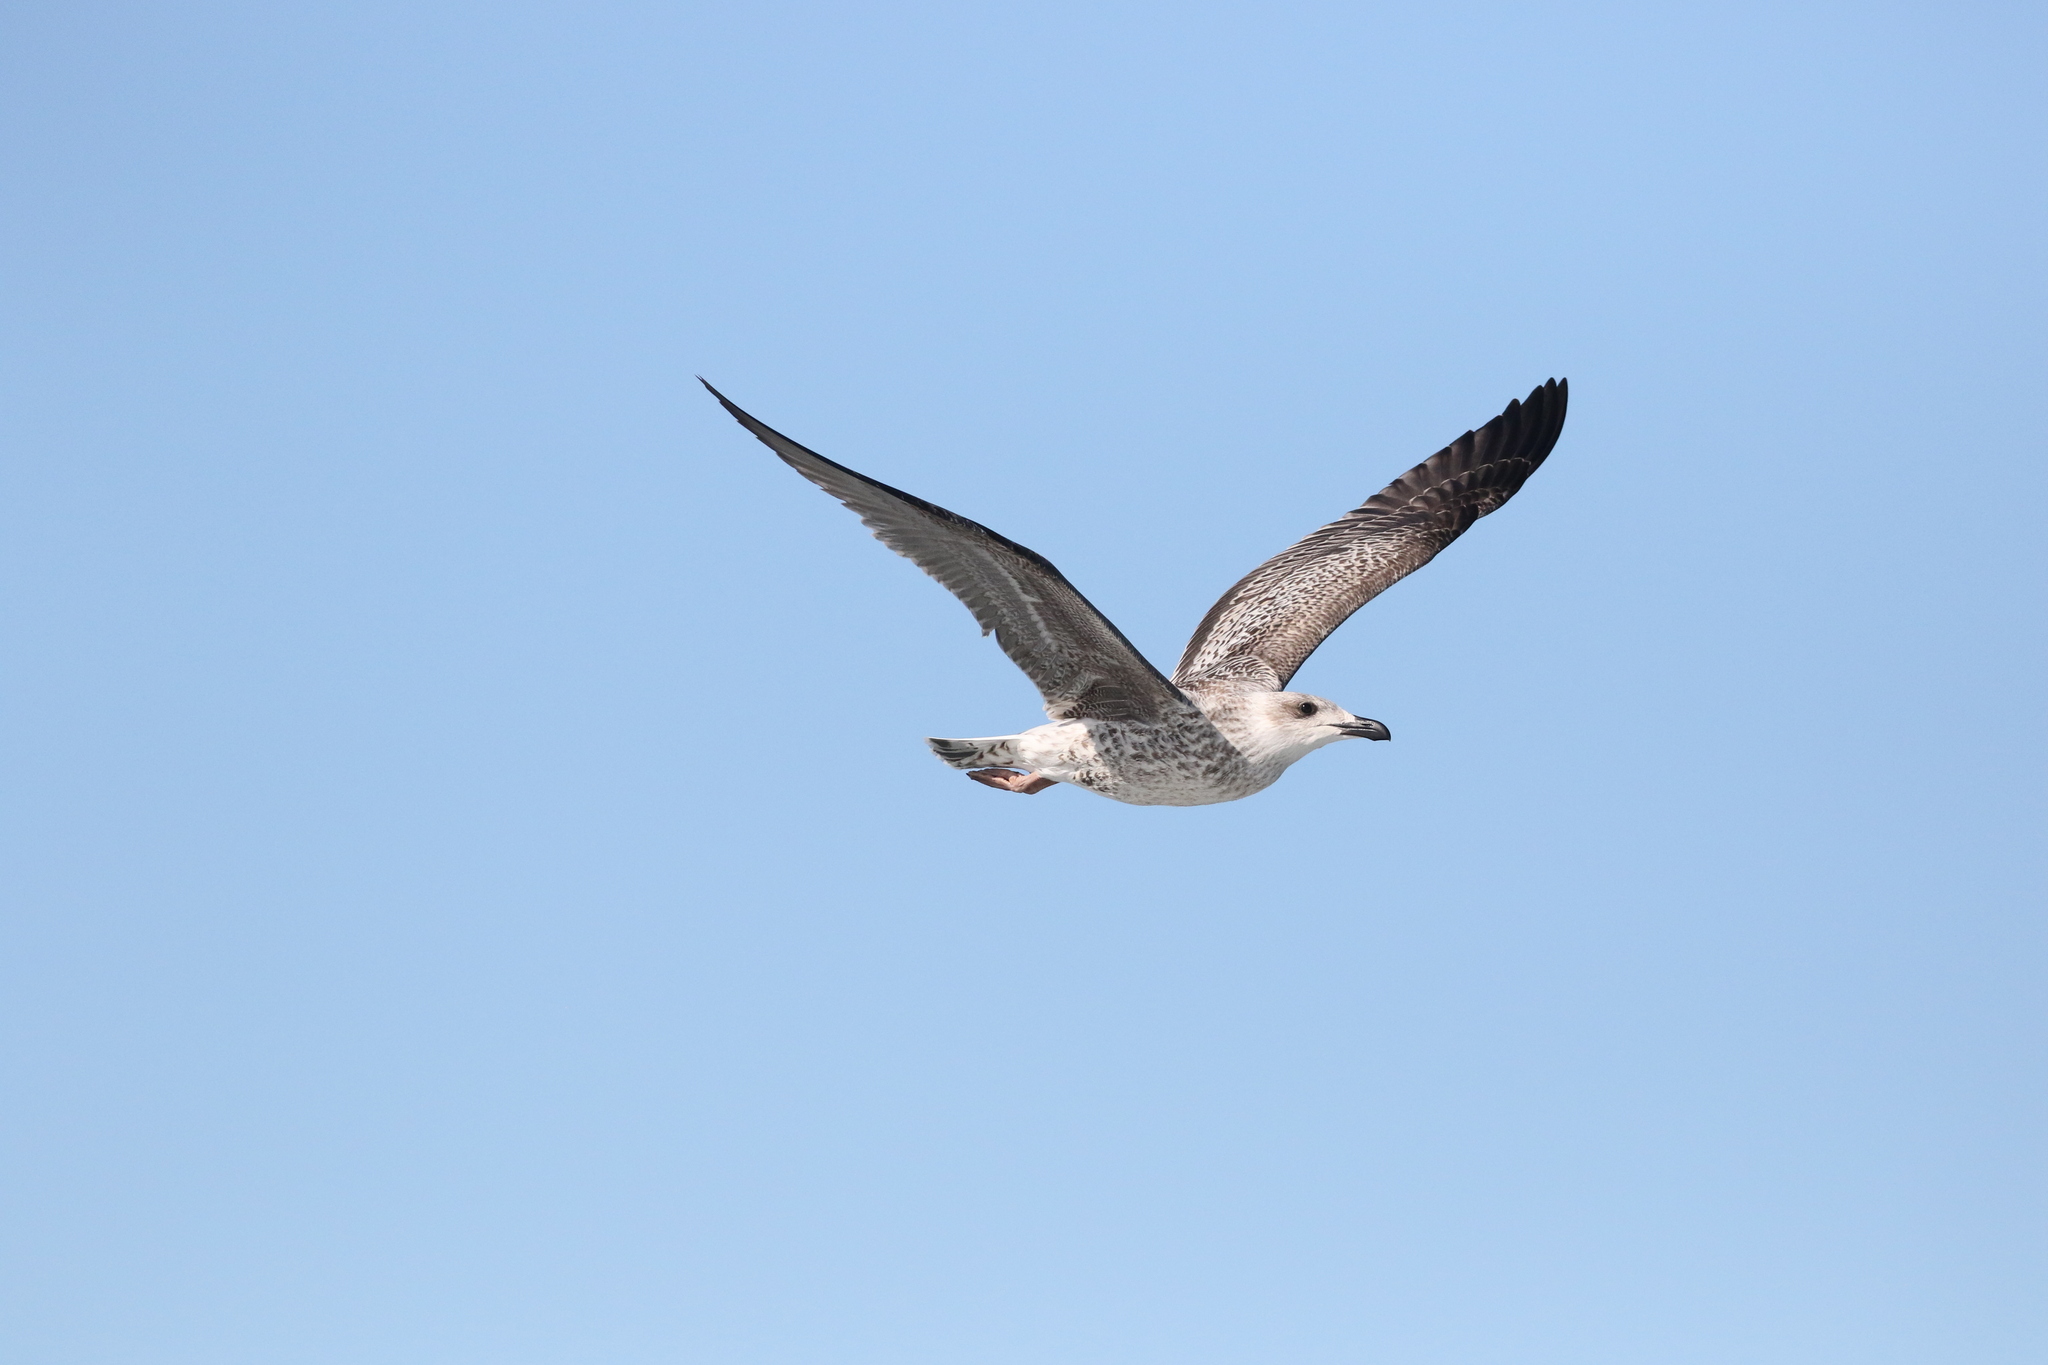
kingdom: Animalia
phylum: Chordata
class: Aves
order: Charadriiformes
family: Laridae
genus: Larus
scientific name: Larus marinus
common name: Great black-backed gull
